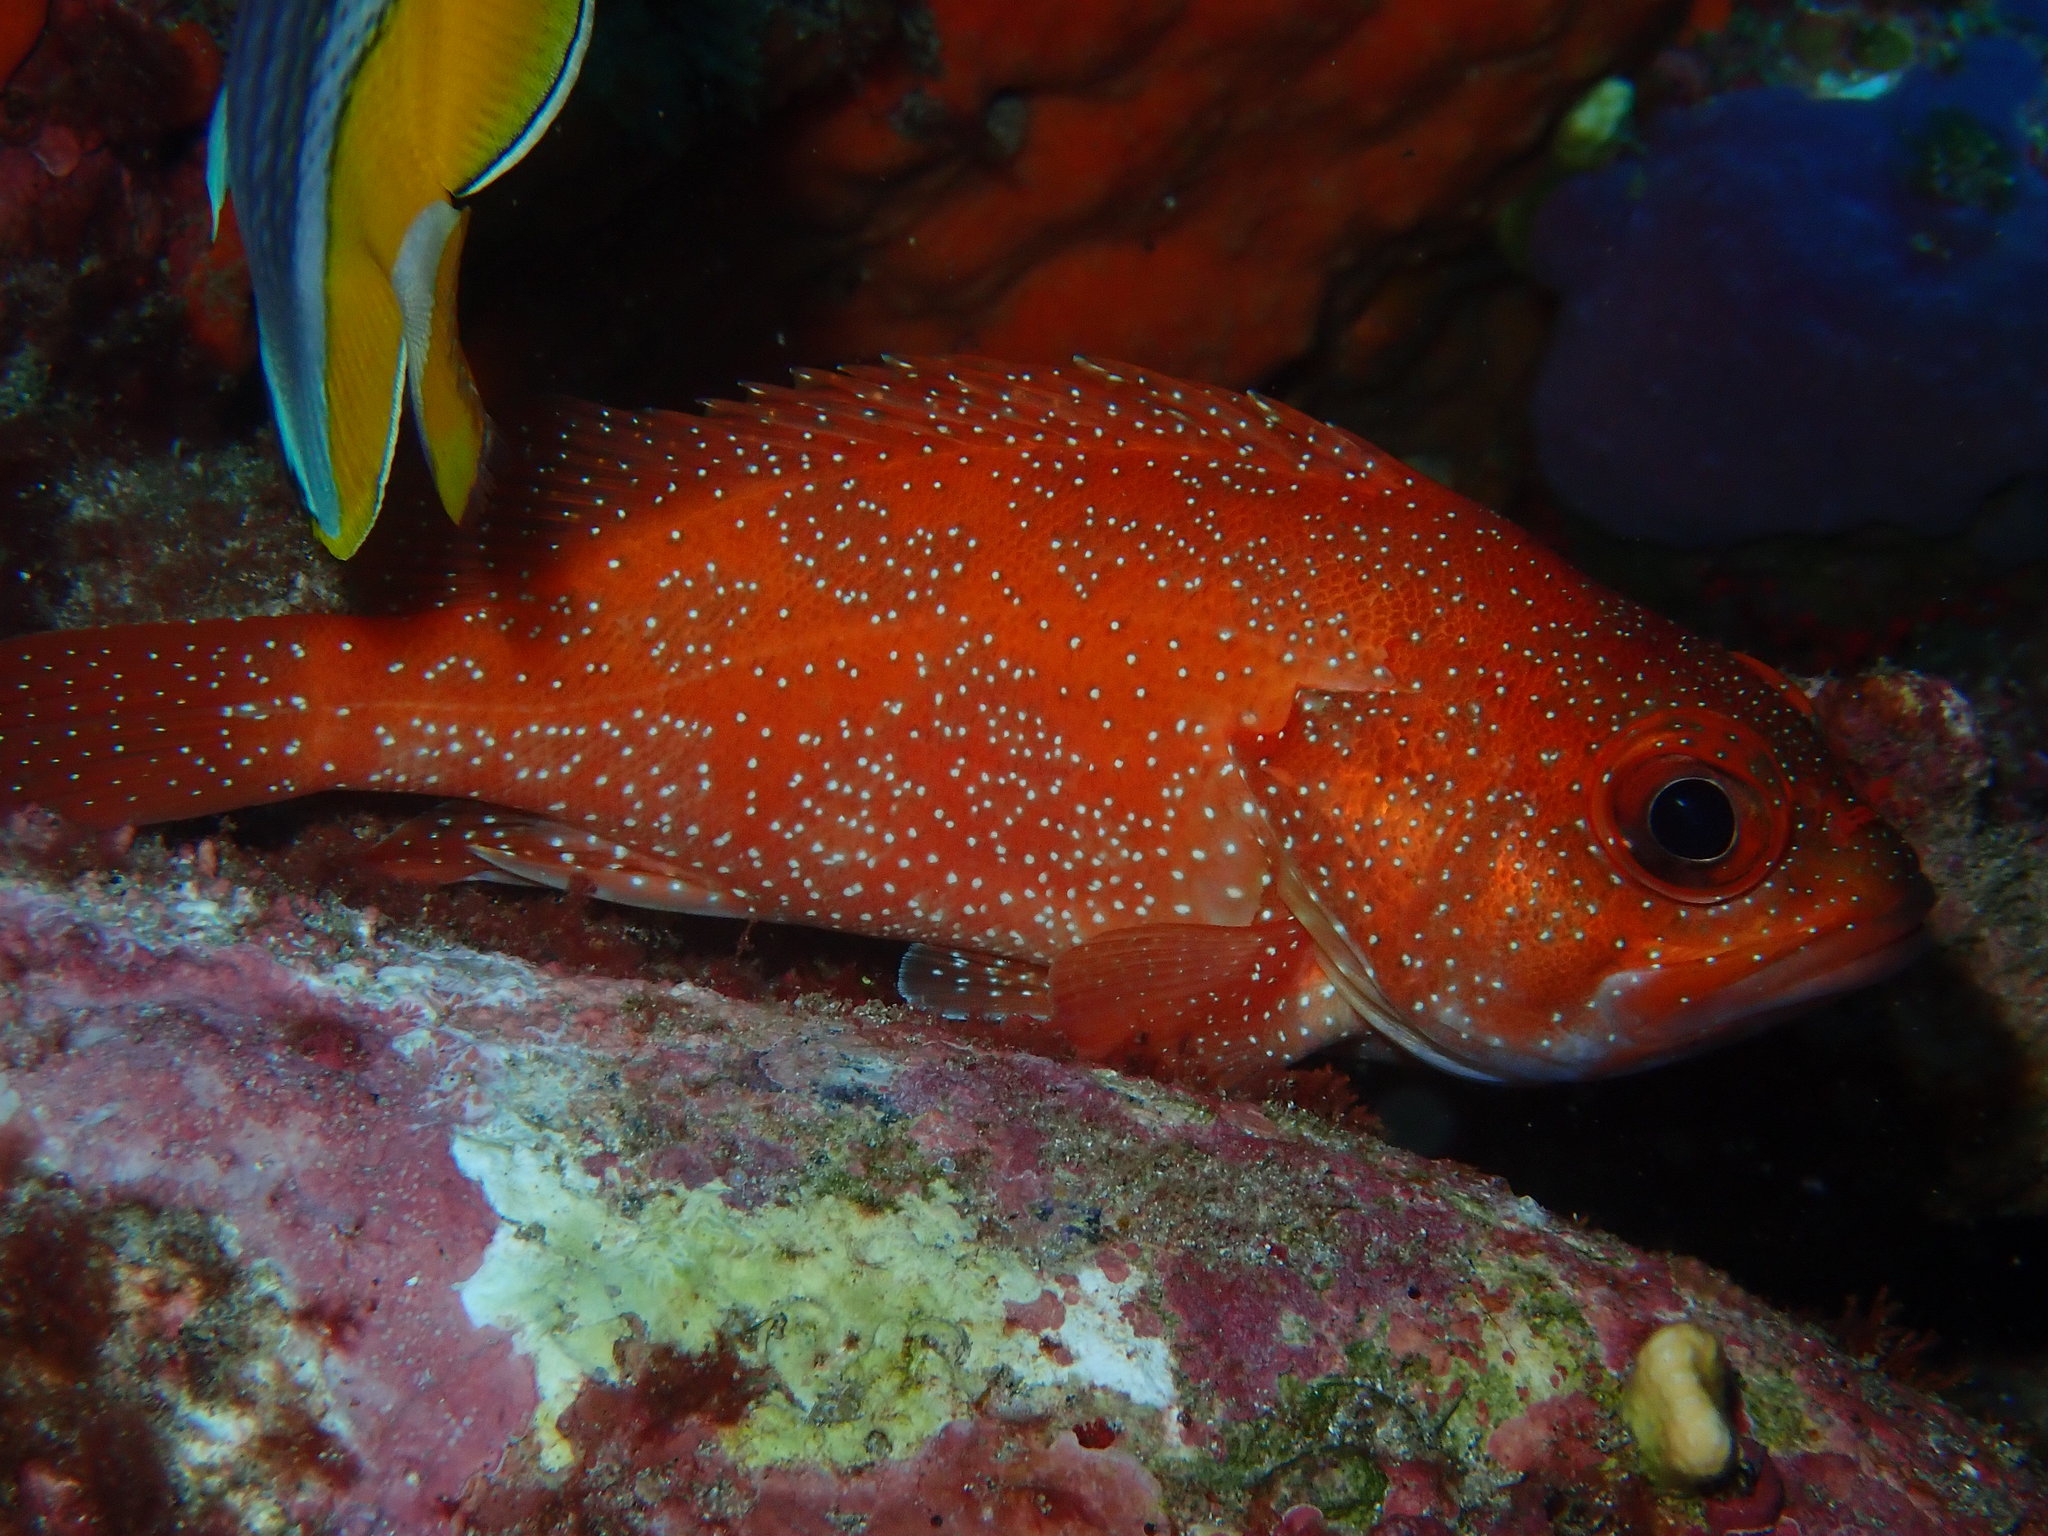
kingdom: Animalia
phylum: Chordata
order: Perciformes
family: Serranidae
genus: Trachypoma
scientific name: Trachypoma macracanthus
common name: Toadstool grouper
